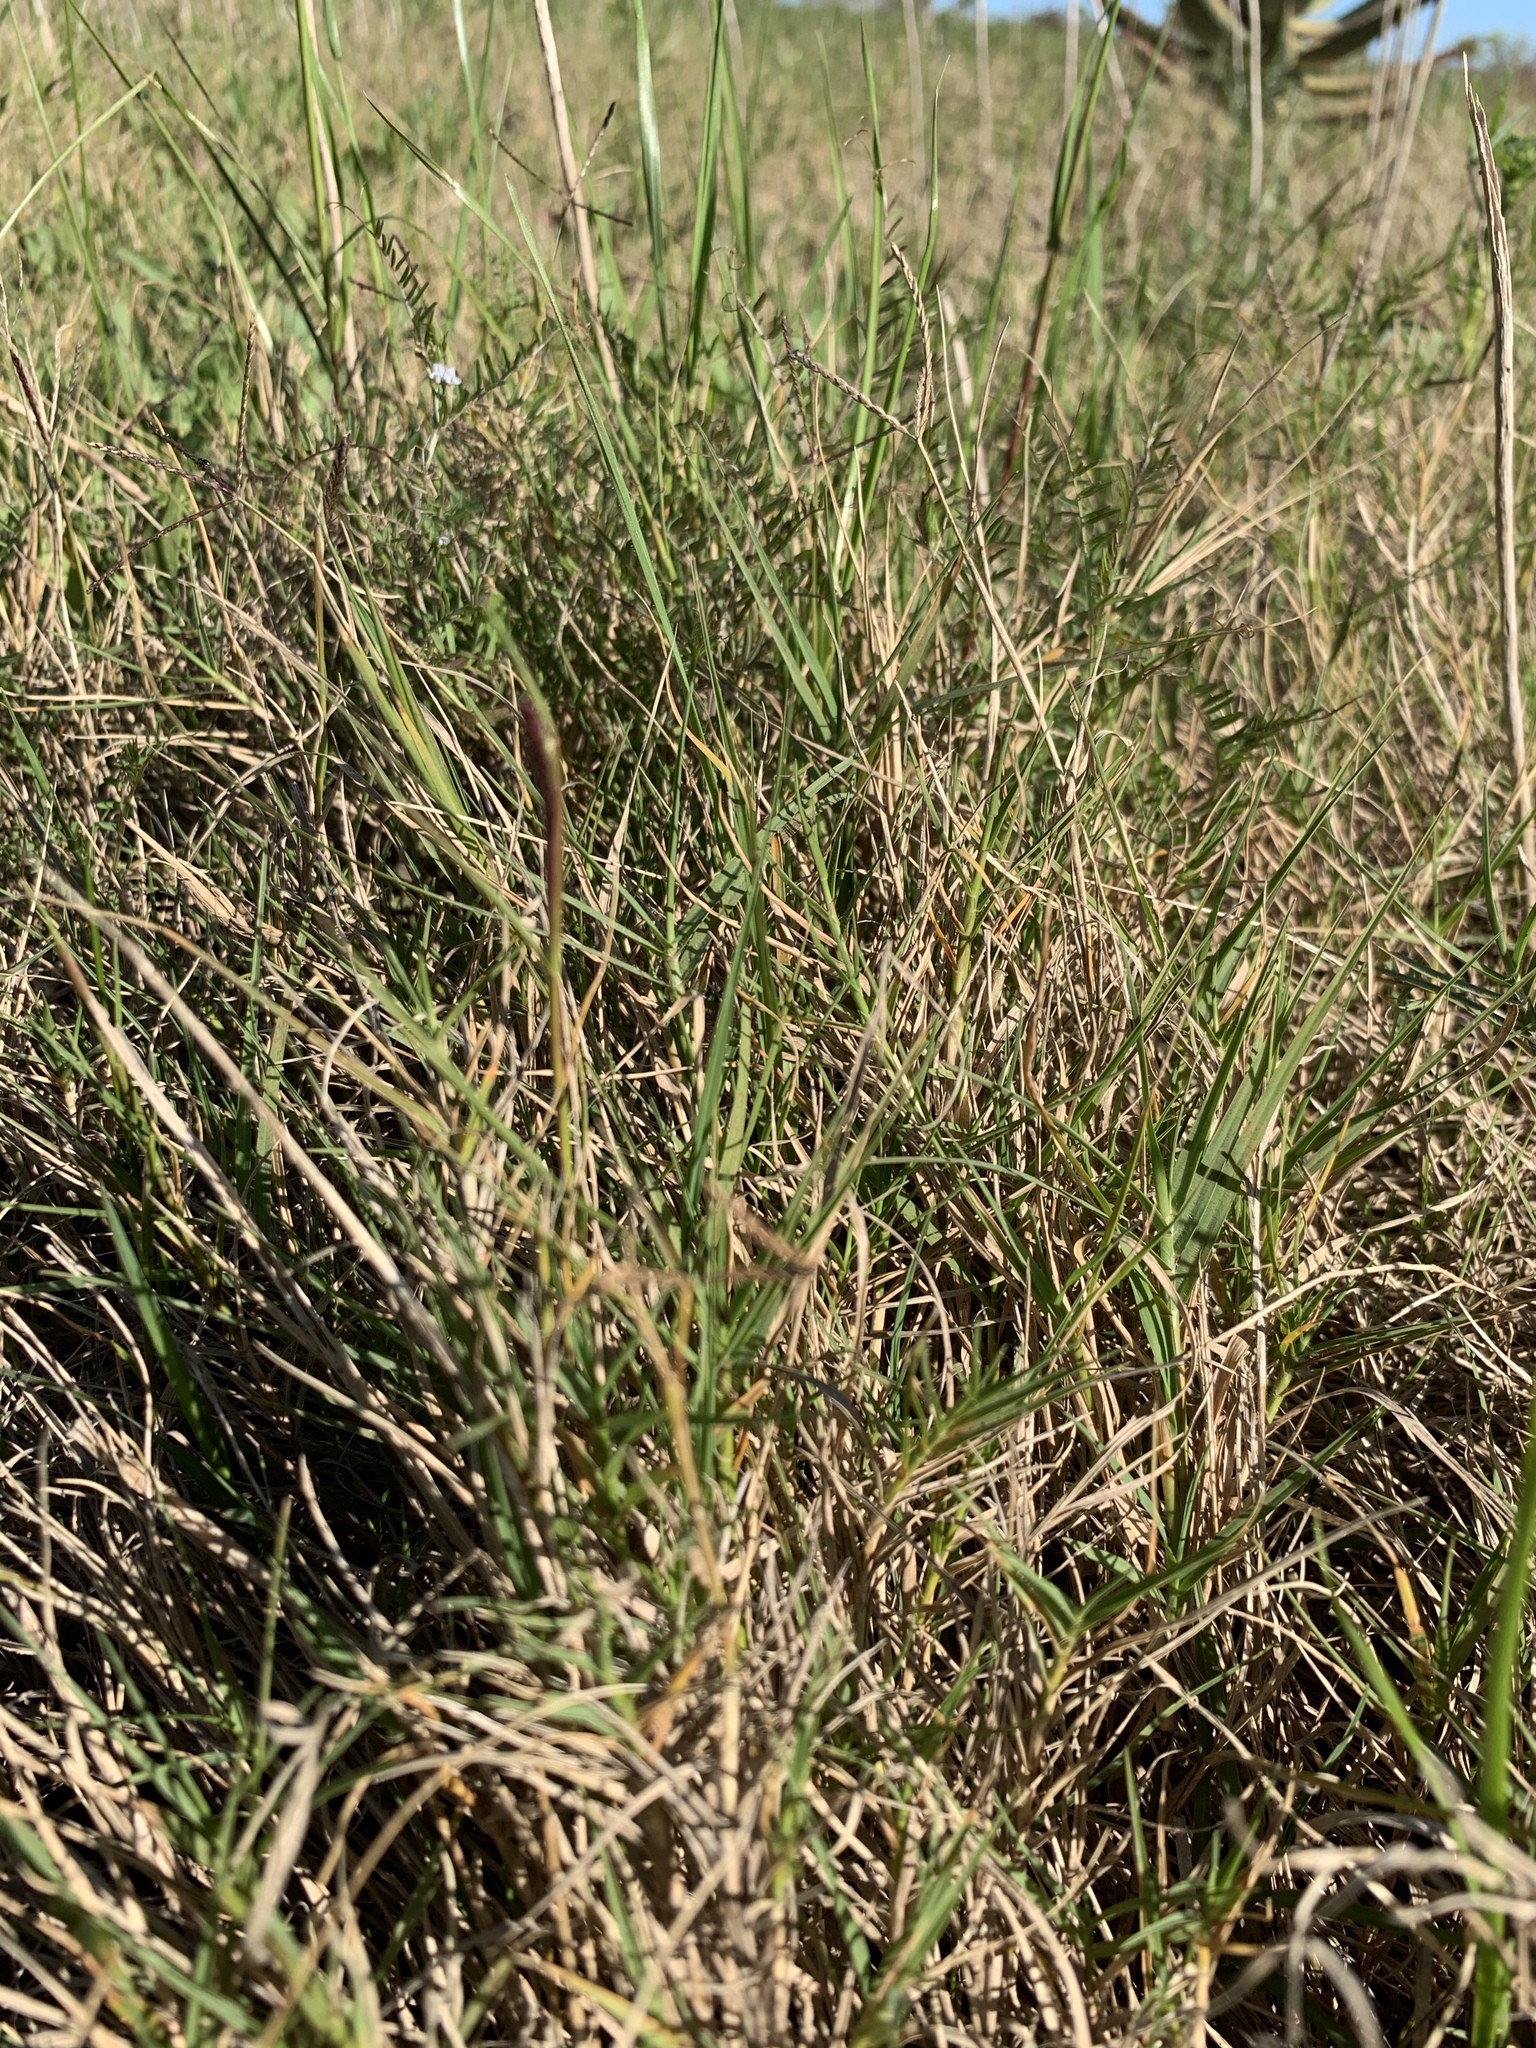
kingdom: Plantae
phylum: Tracheophyta
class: Liliopsida
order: Poales
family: Poaceae
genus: Cynodon
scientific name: Cynodon dactylon
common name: Bermuda grass
